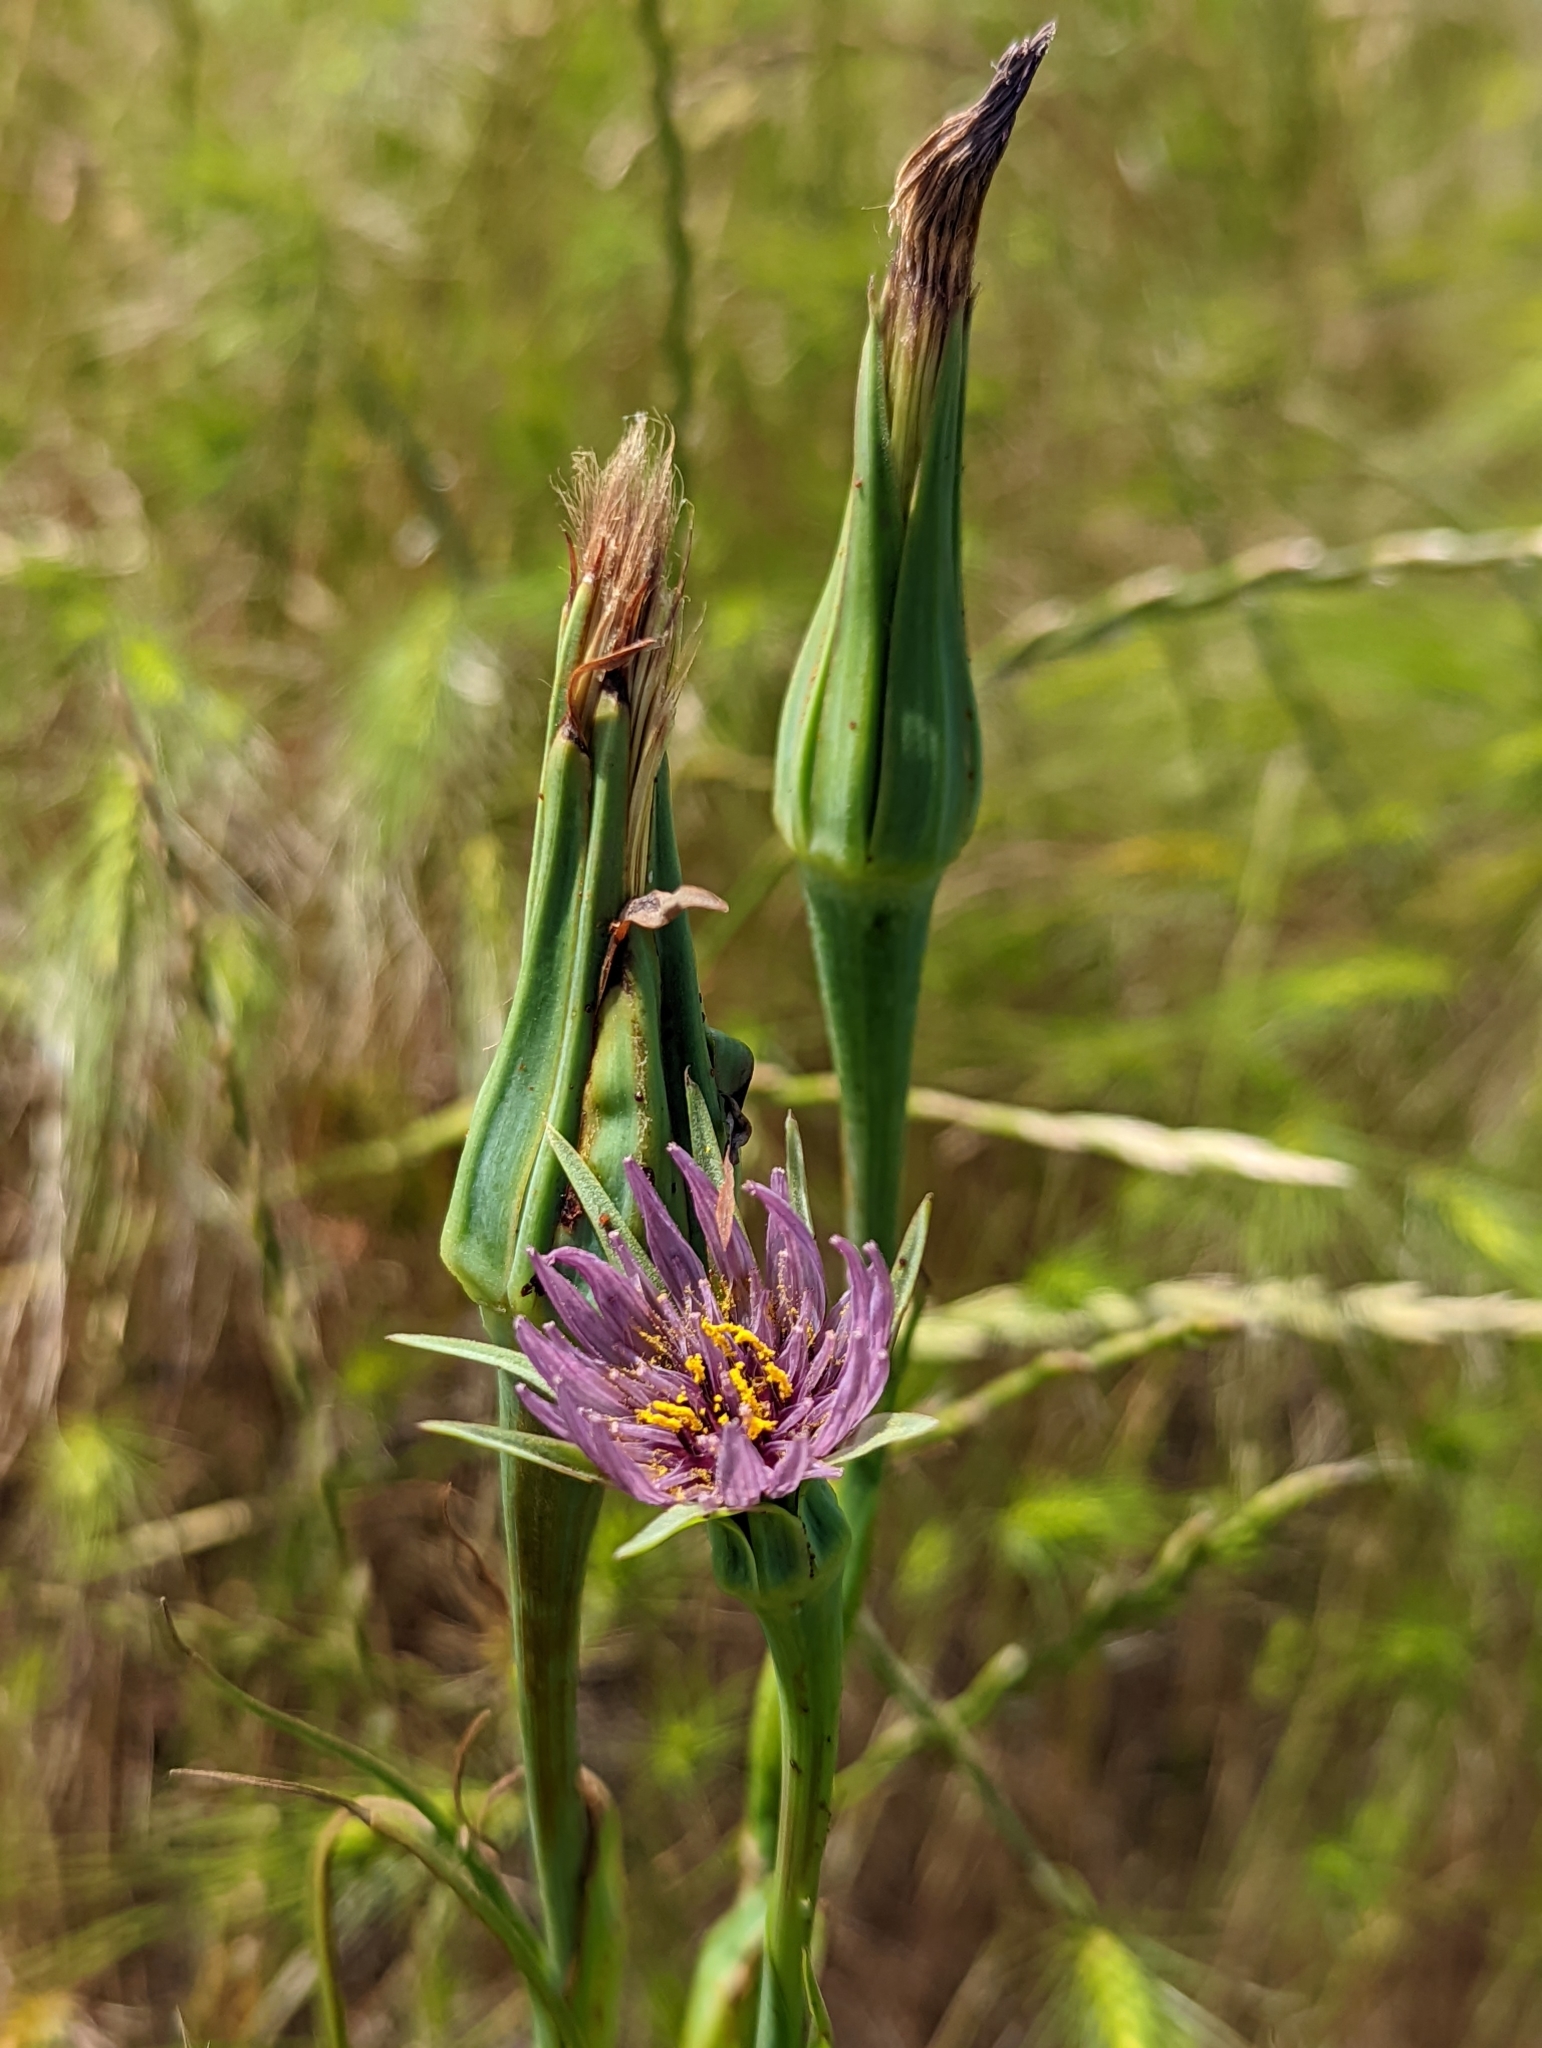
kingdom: Plantae
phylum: Tracheophyta
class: Magnoliopsida
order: Asterales
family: Asteraceae
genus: Tragopogon
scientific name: Tragopogon porrifolius
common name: Salsify
